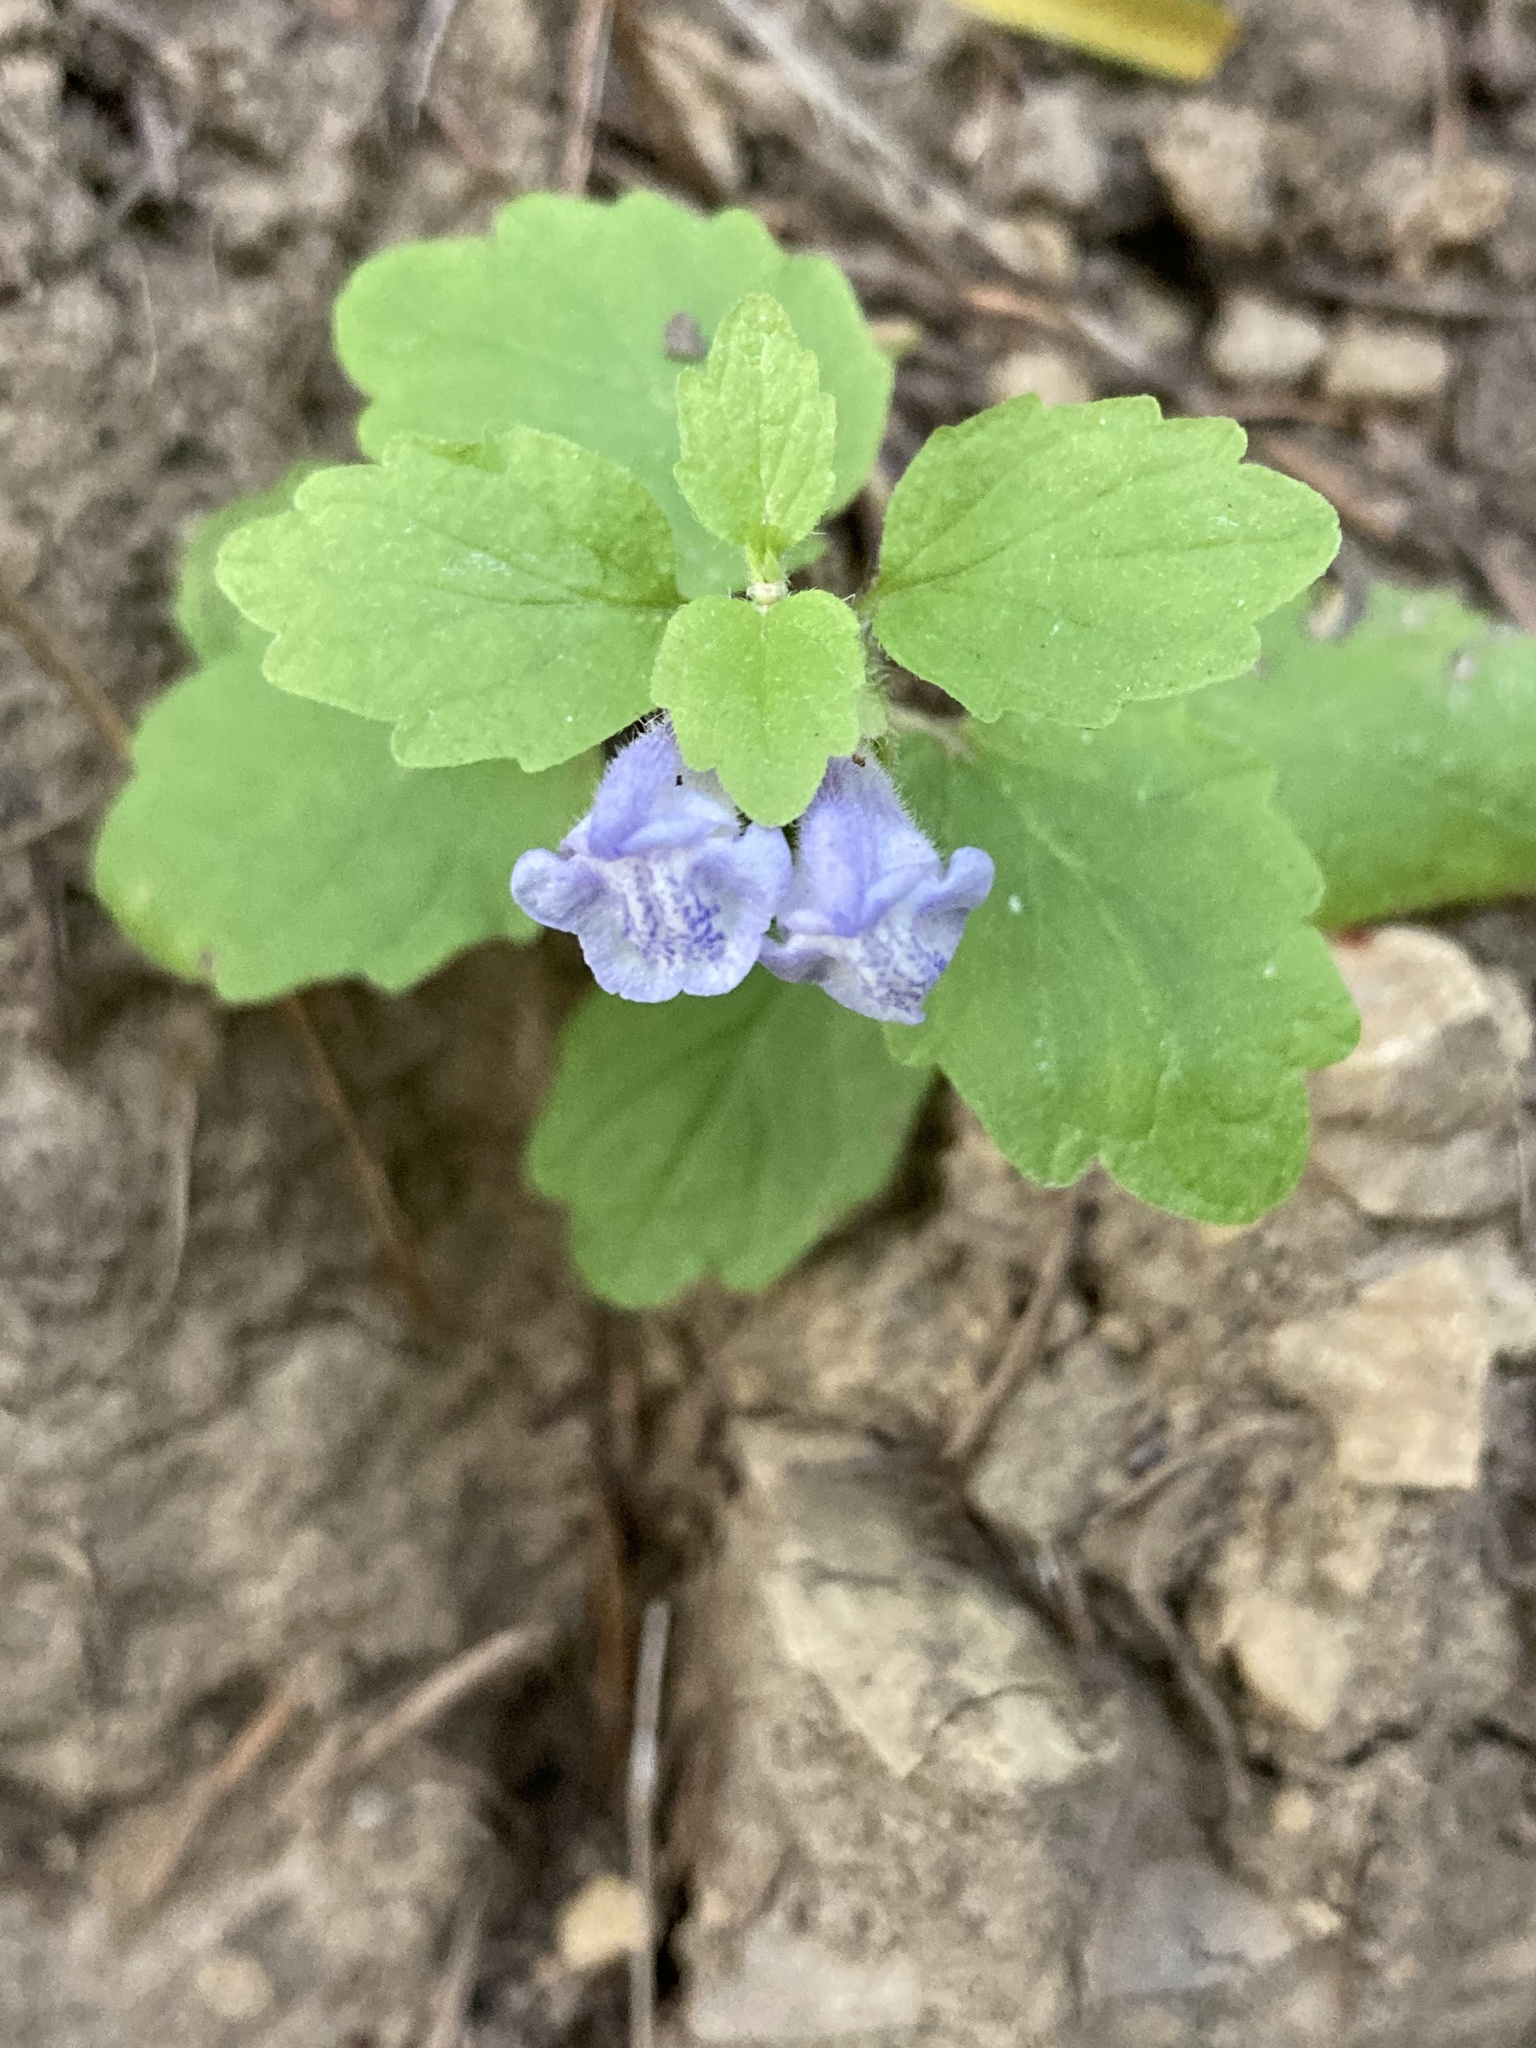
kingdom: Plantae
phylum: Tracheophyta
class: Magnoliopsida
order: Lamiales
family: Lamiaceae
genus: Scutellaria
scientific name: Scutellaria tuberosa
